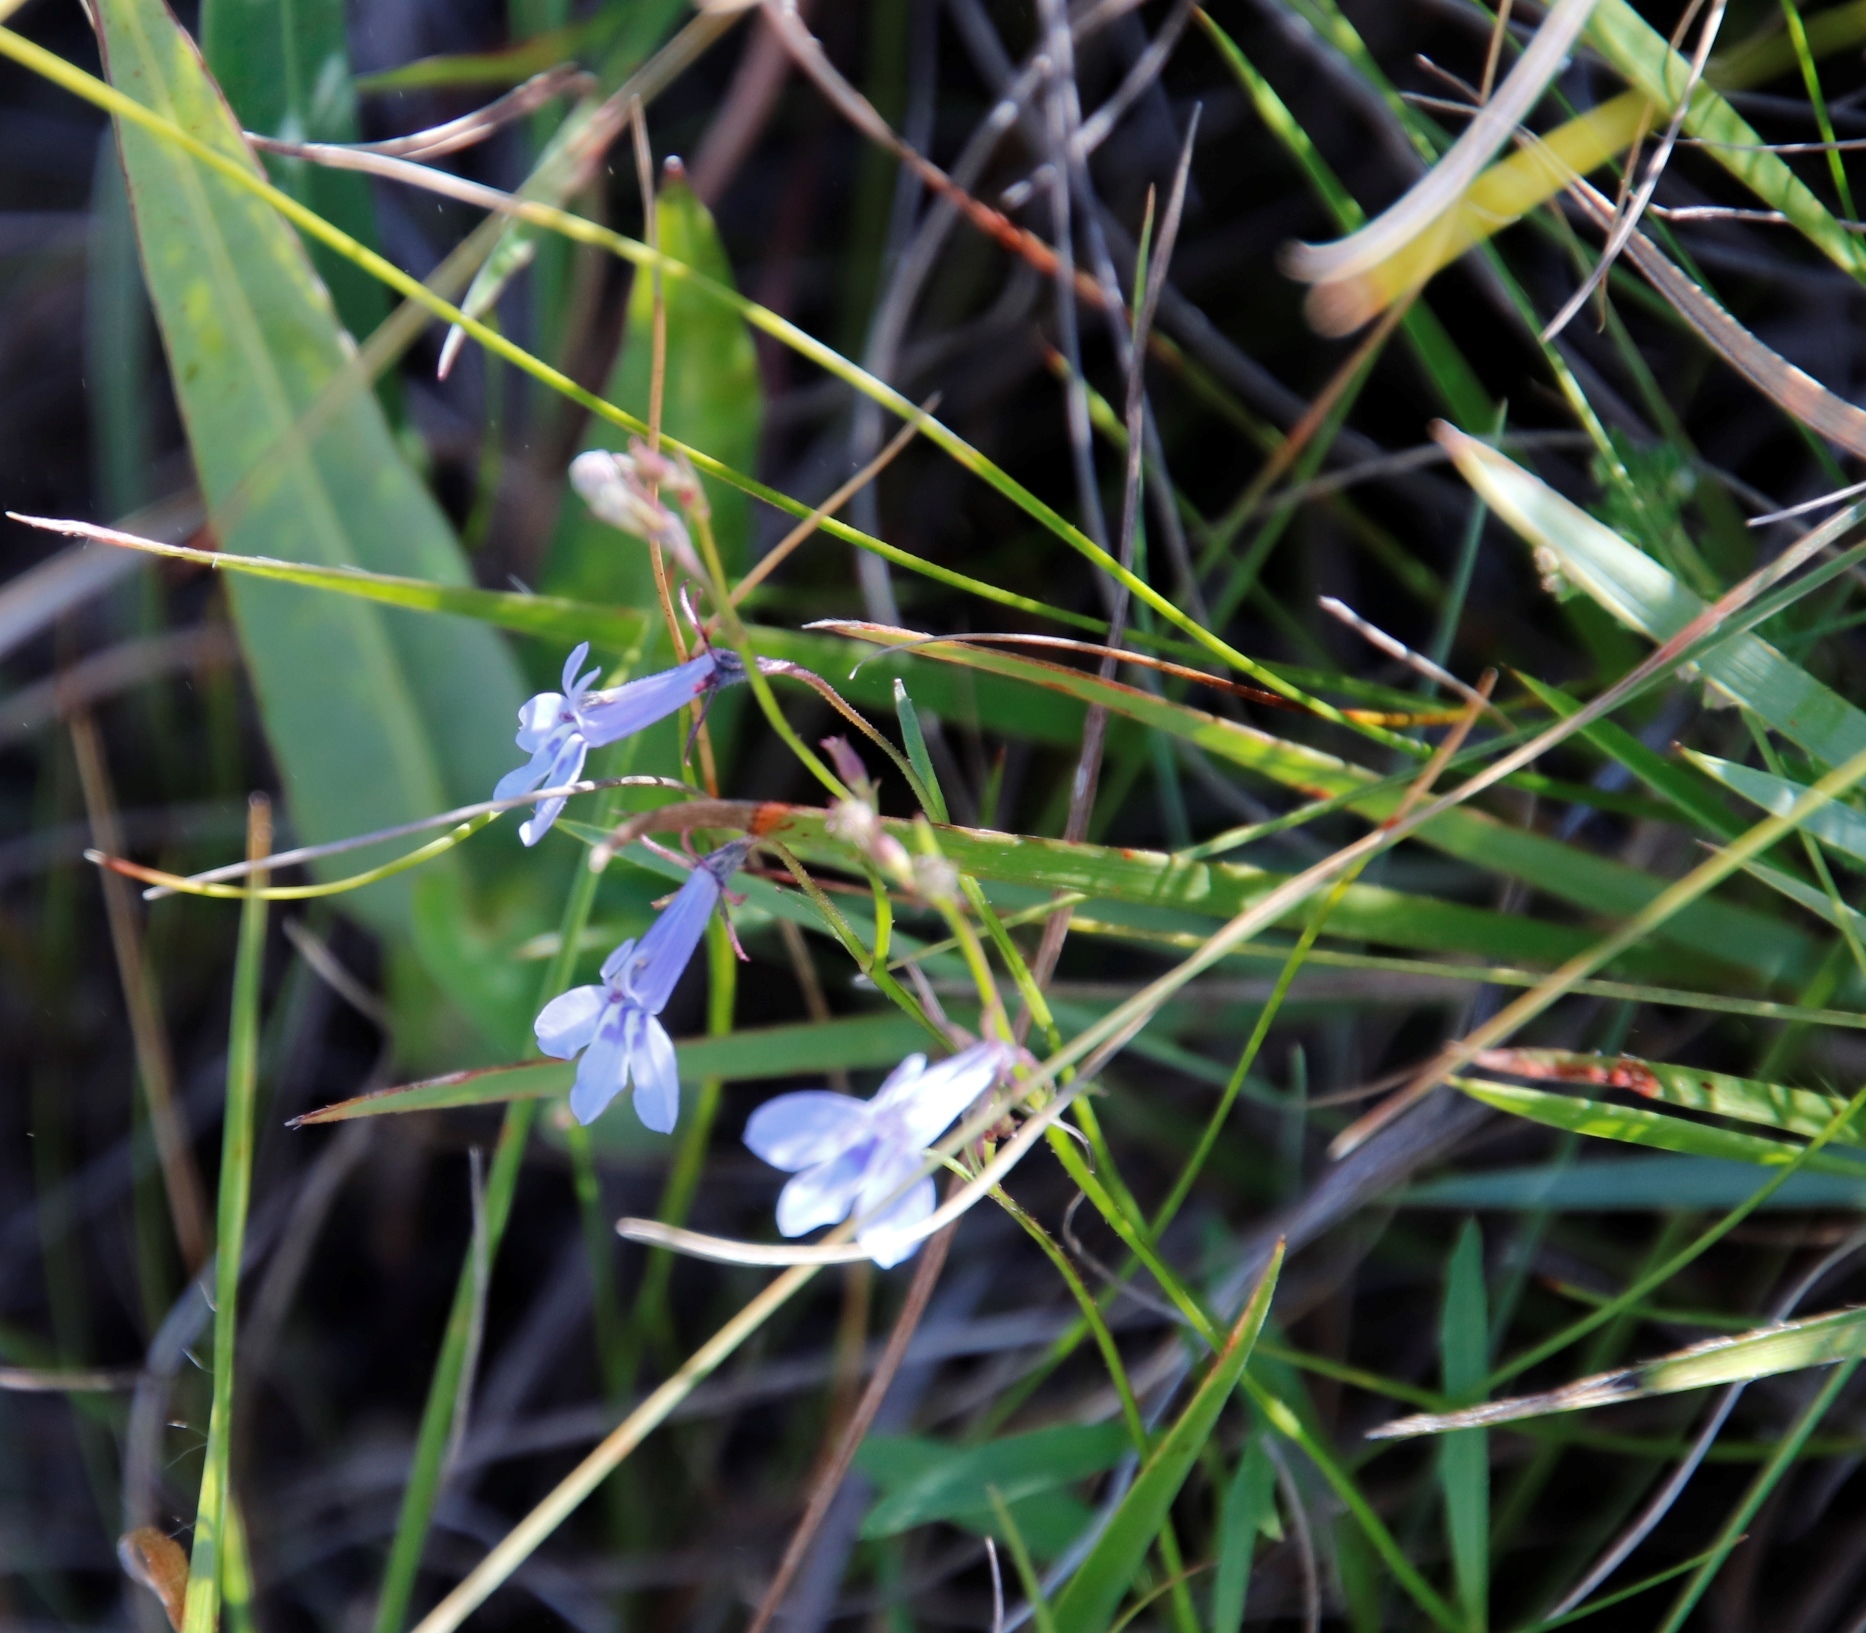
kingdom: Plantae
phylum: Tracheophyta
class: Magnoliopsida
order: Asterales
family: Campanulaceae
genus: Lobelia
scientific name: Lobelia flaccida
